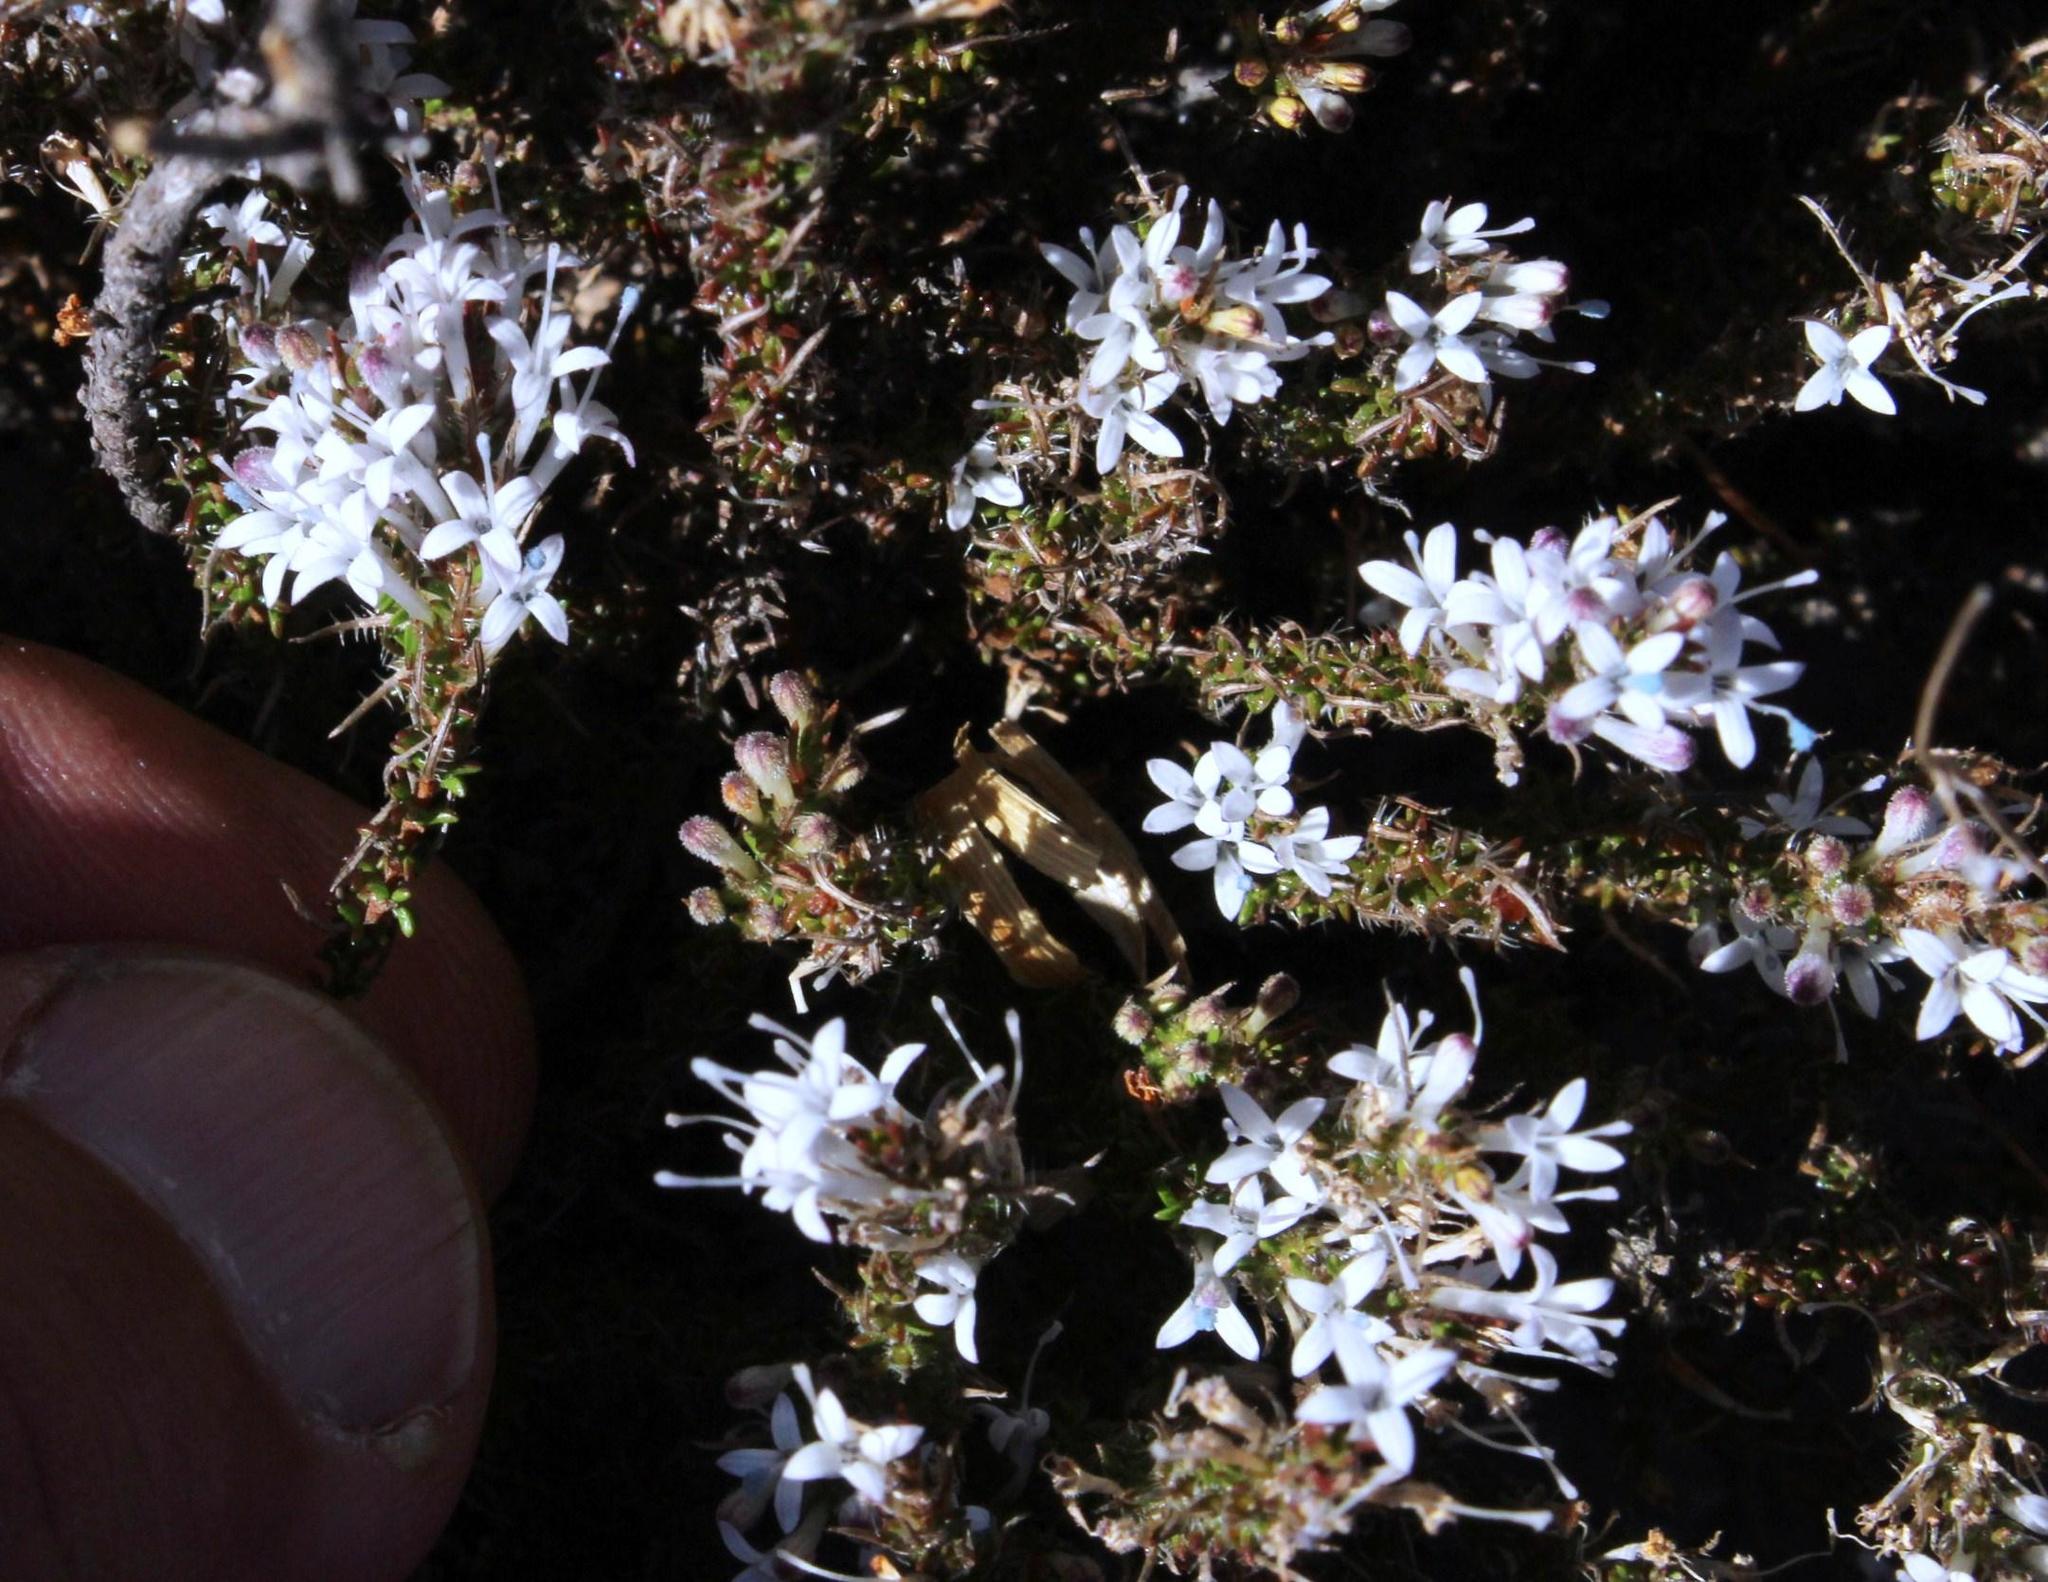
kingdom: Plantae
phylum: Tracheophyta
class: Magnoliopsida
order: Asterales
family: Campanulaceae
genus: Merciera
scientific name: Merciera tetraloba
